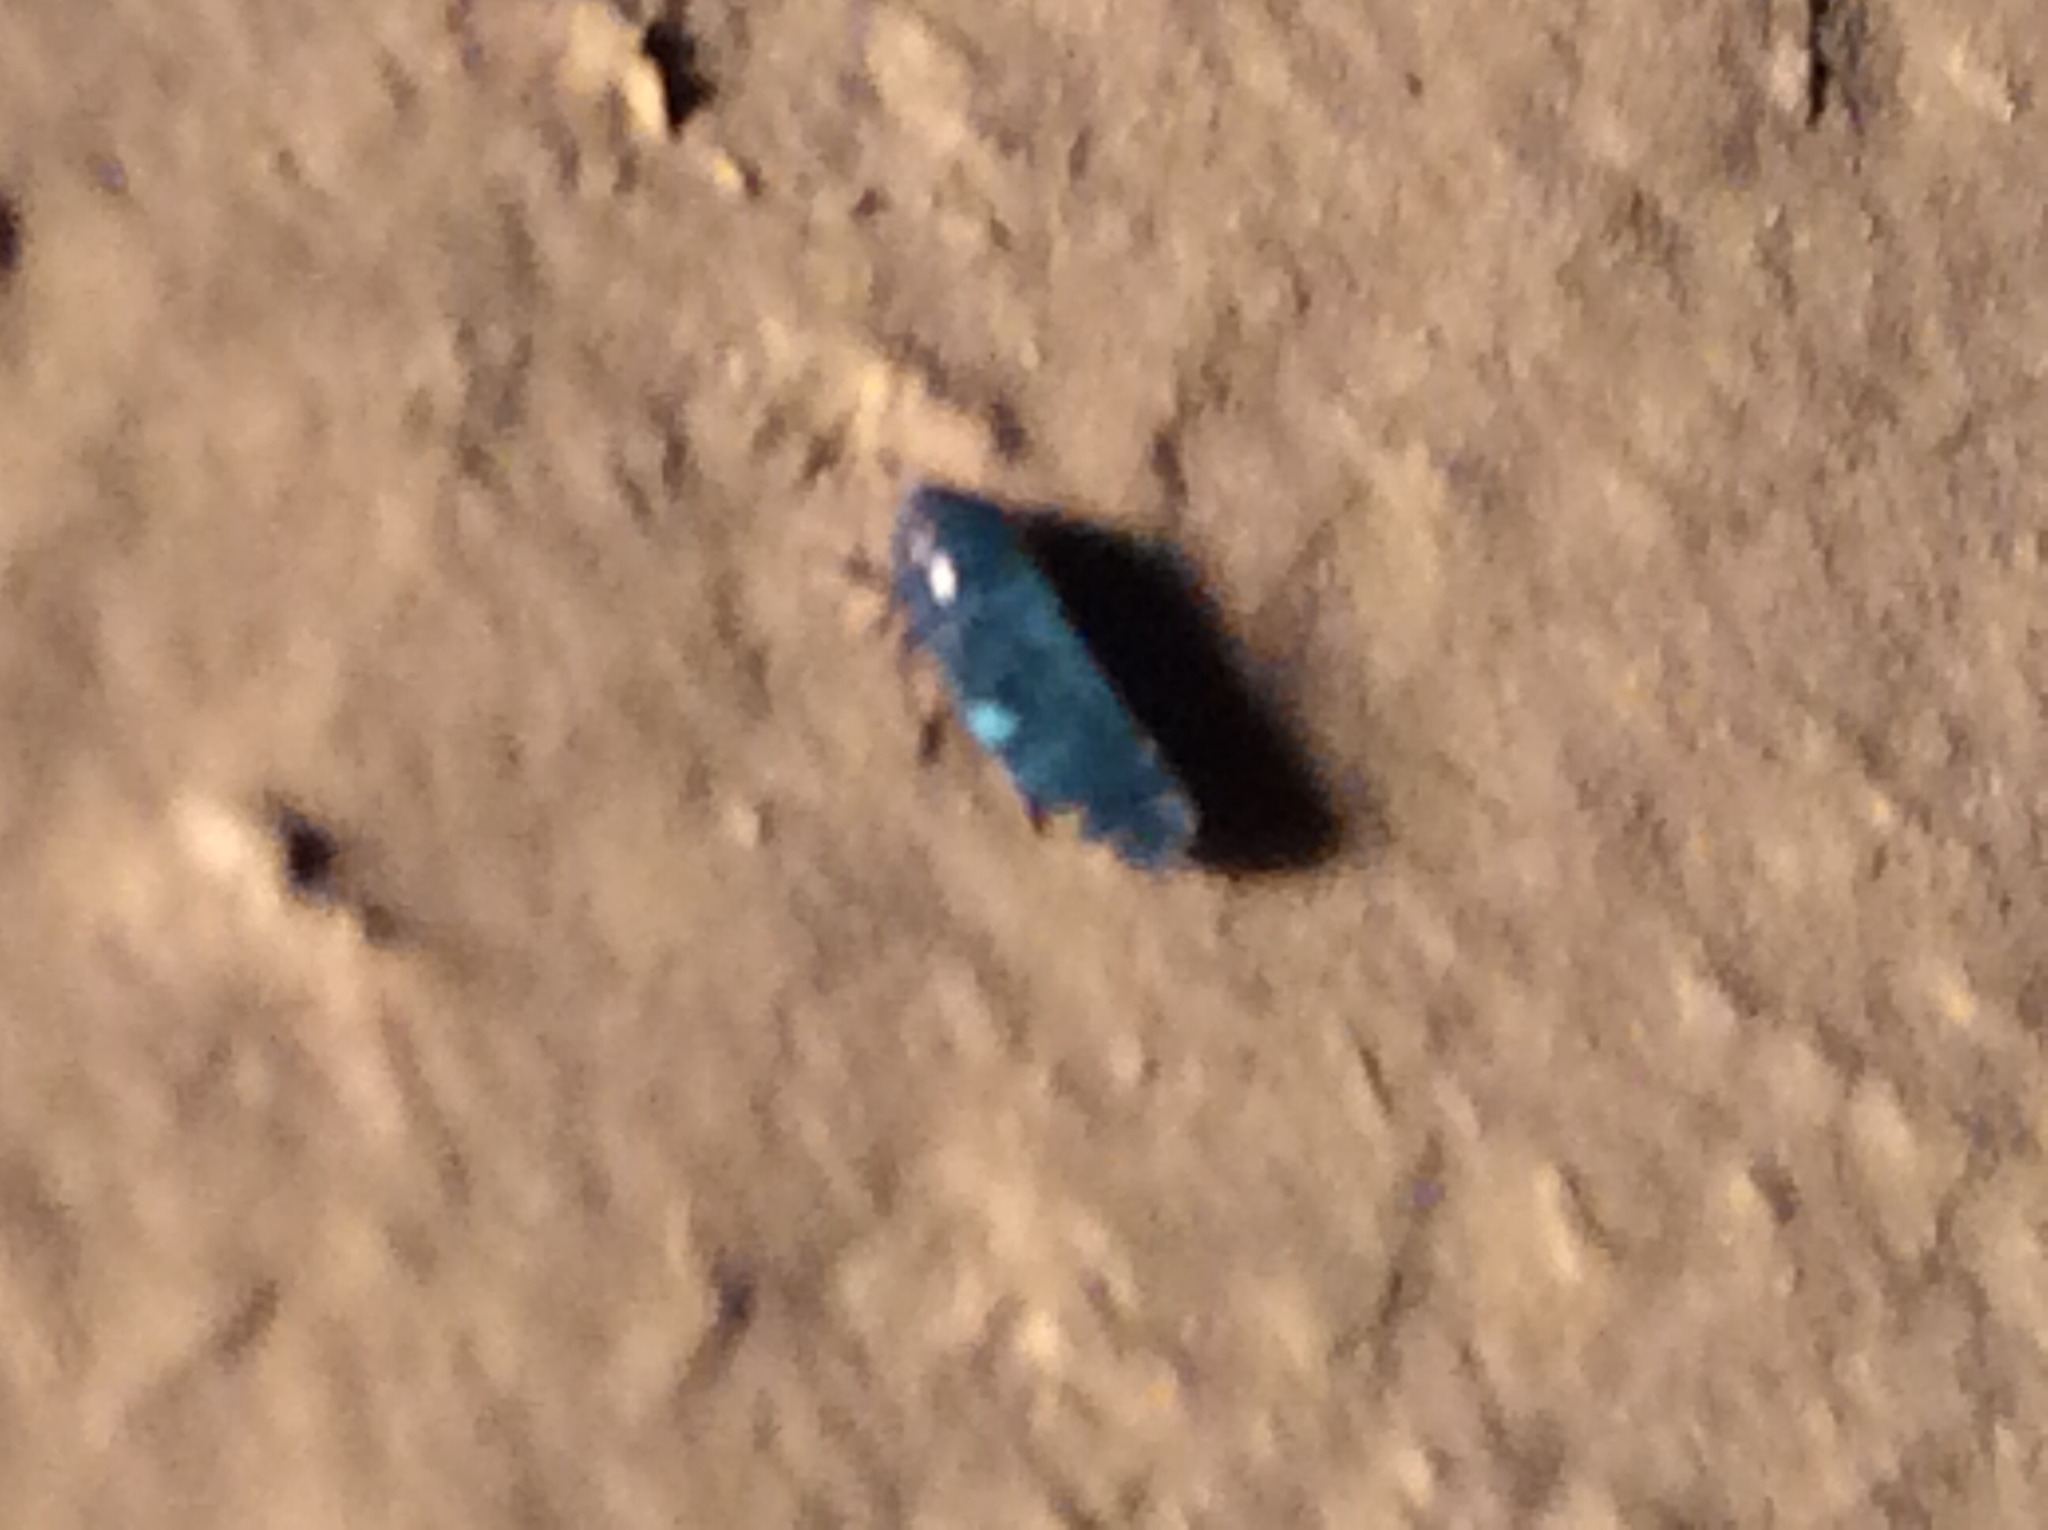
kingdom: Animalia
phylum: Arthropoda
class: Insecta
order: Hemiptera
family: Cicadellidae
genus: Xestocephalus
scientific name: Xestocephalus brunneus
